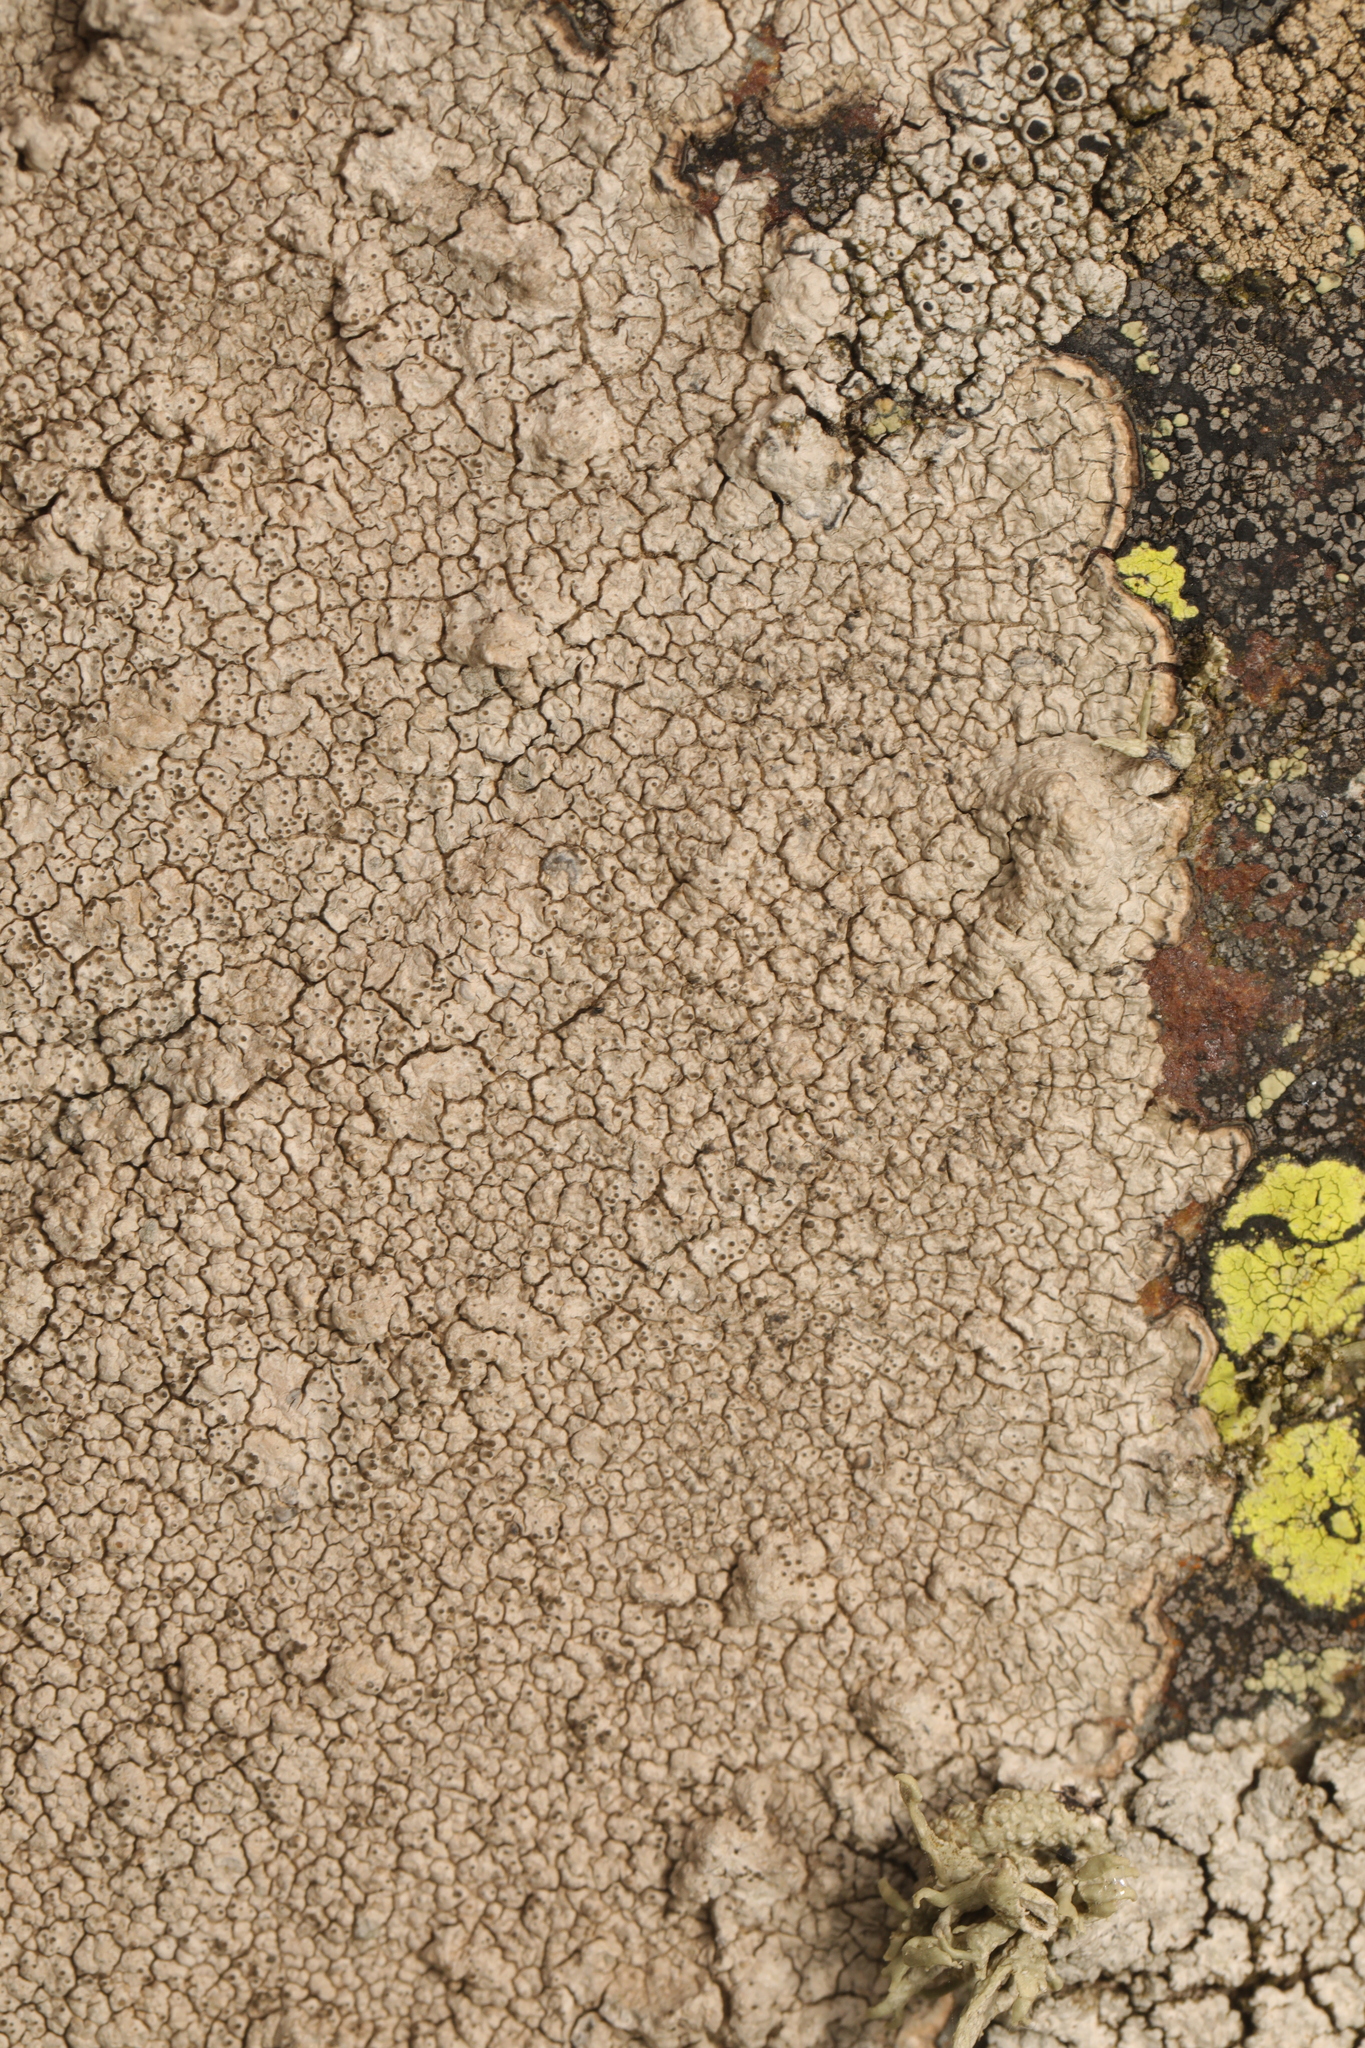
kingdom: Fungi
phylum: Ascomycota
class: Lecanoromycetes
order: Pertusariales
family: Pertusariaceae
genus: Pertusaria
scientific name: Pertusaria pseudocorallina
